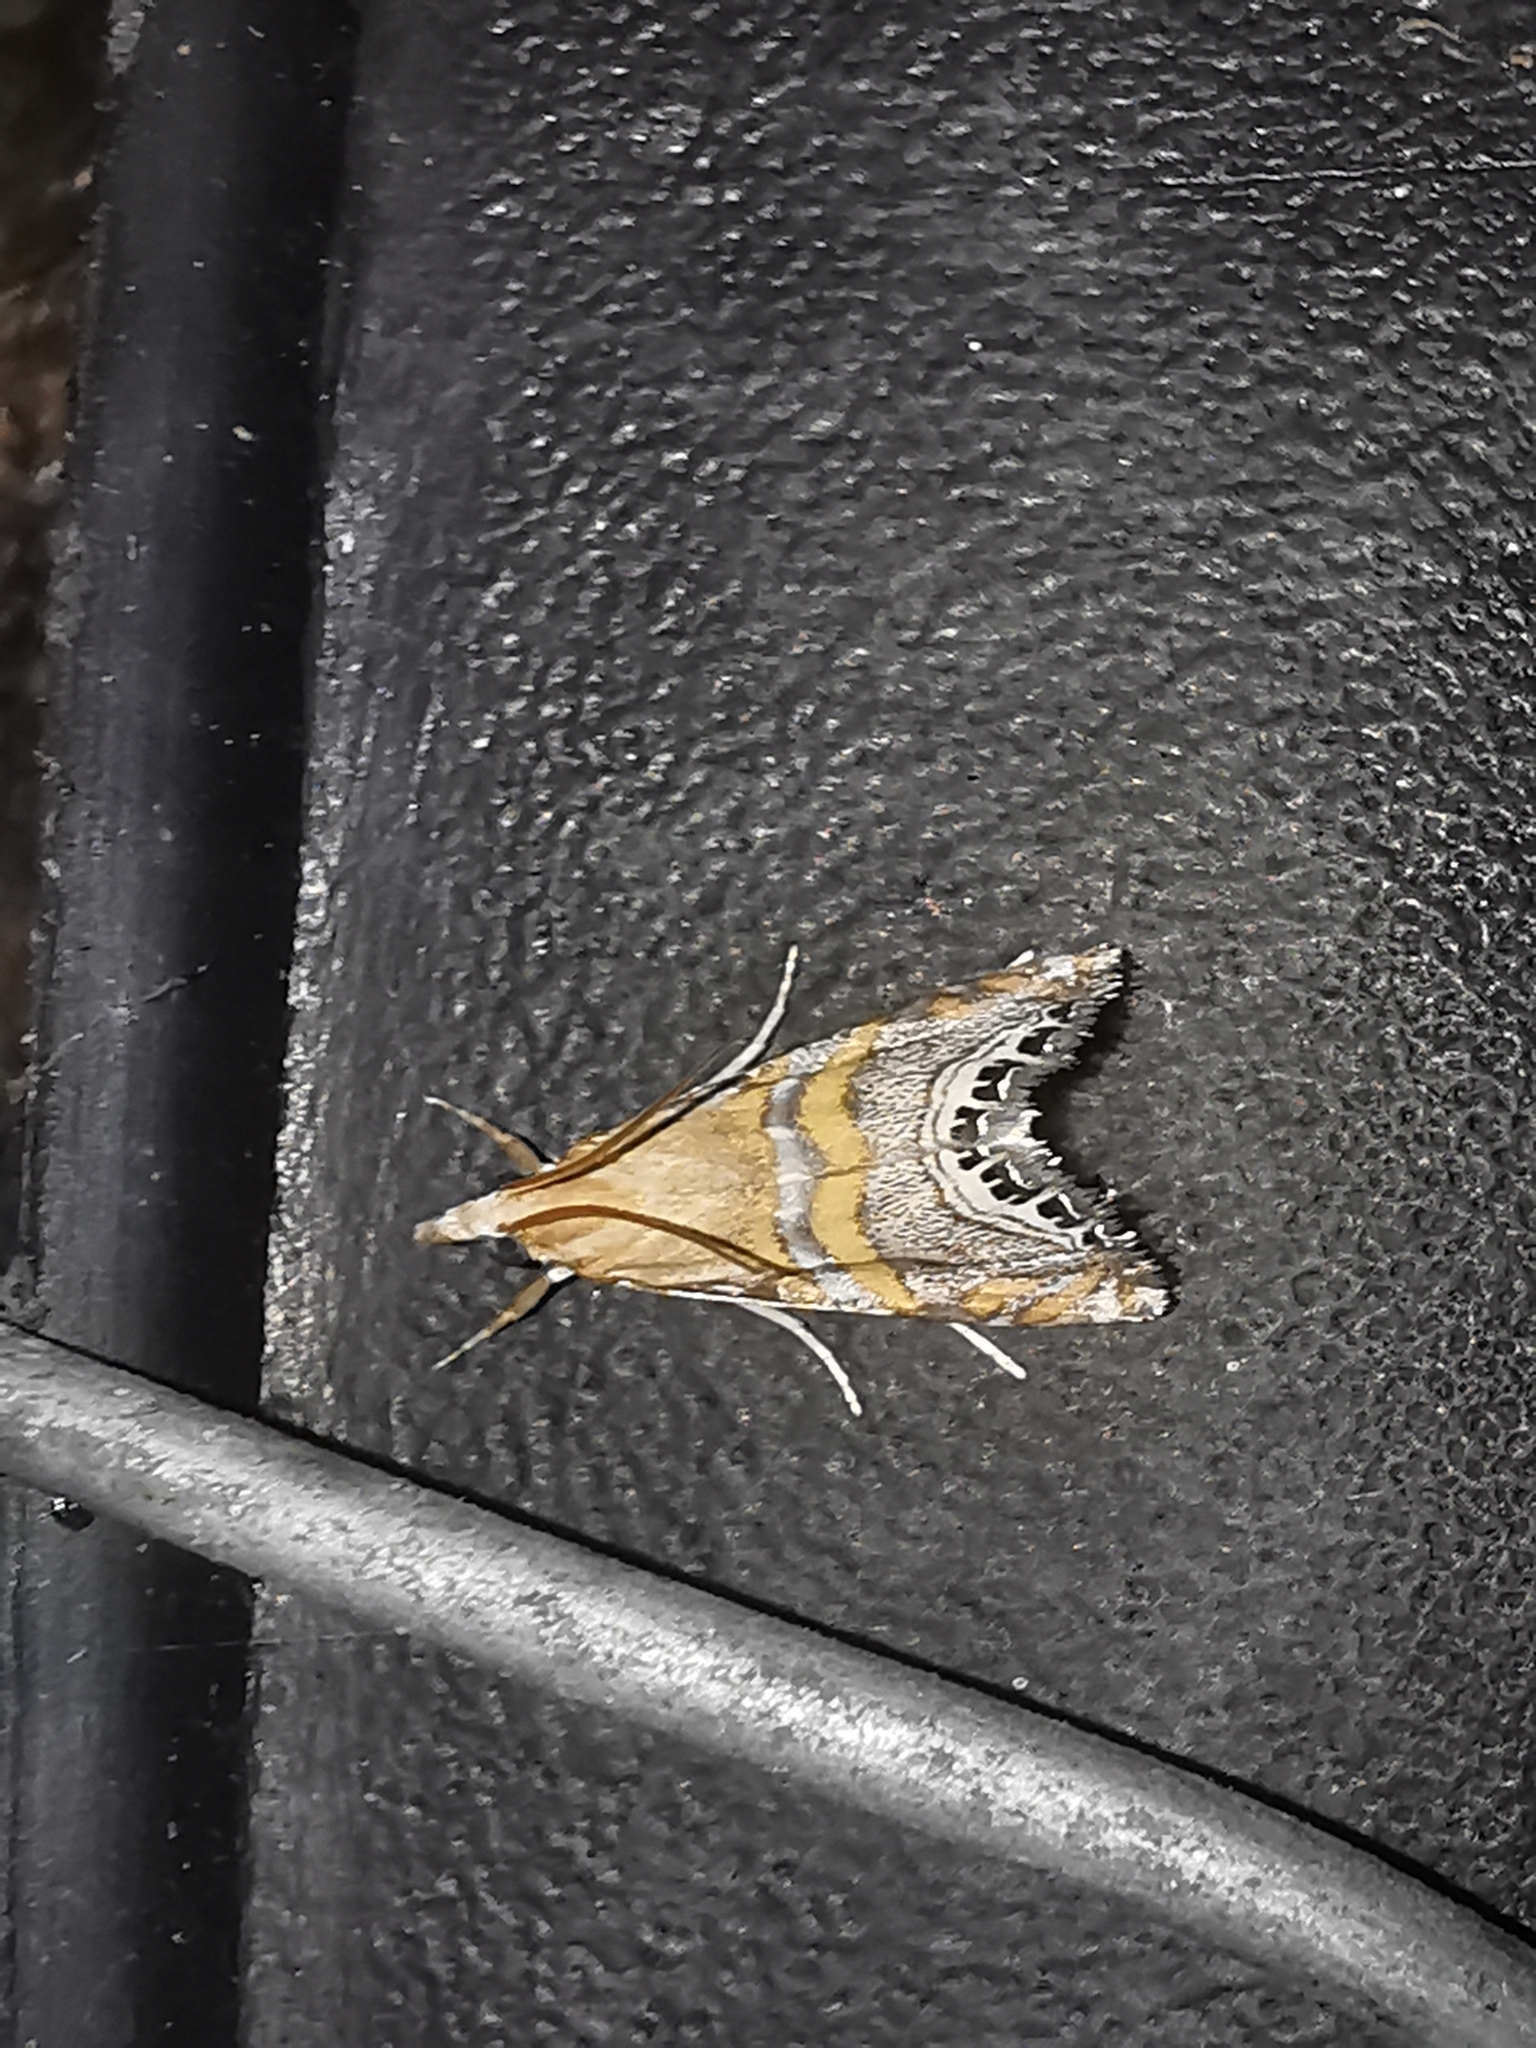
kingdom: Animalia
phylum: Arthropoda
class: Insecta
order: Lepidoptera
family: Crambidae
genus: Euchromius
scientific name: Euchromius bella
